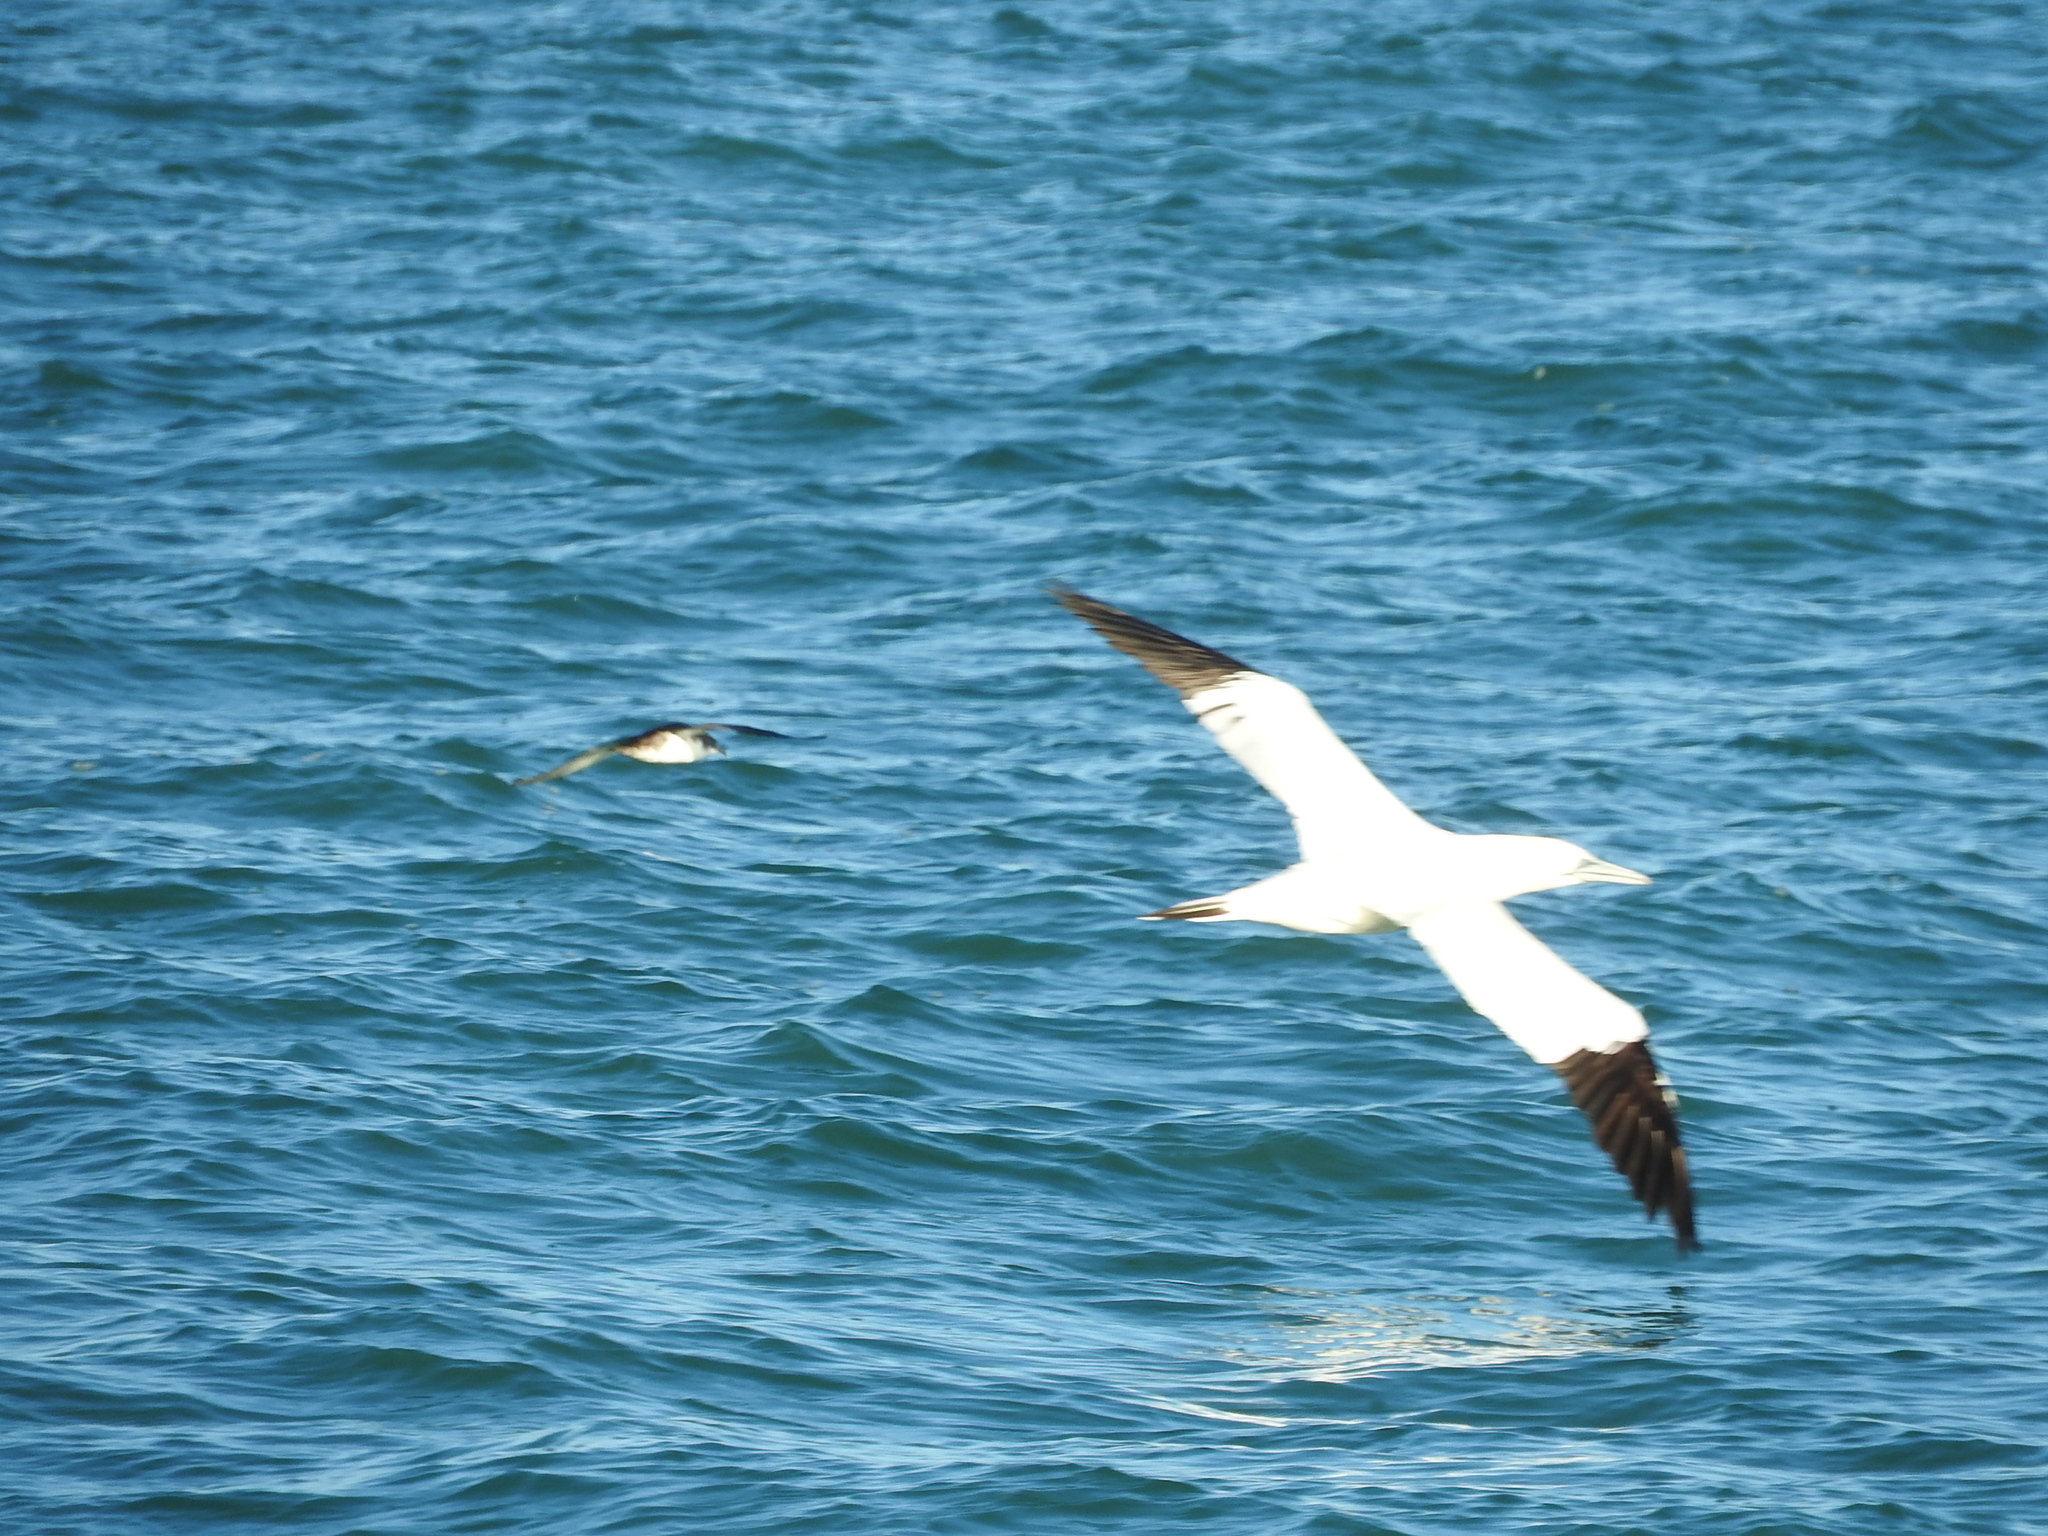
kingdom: Animalia
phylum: Chordata
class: Aves
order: Suliformes
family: Sulidae
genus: Morus
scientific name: Morus bassanus
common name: Northern gannet
